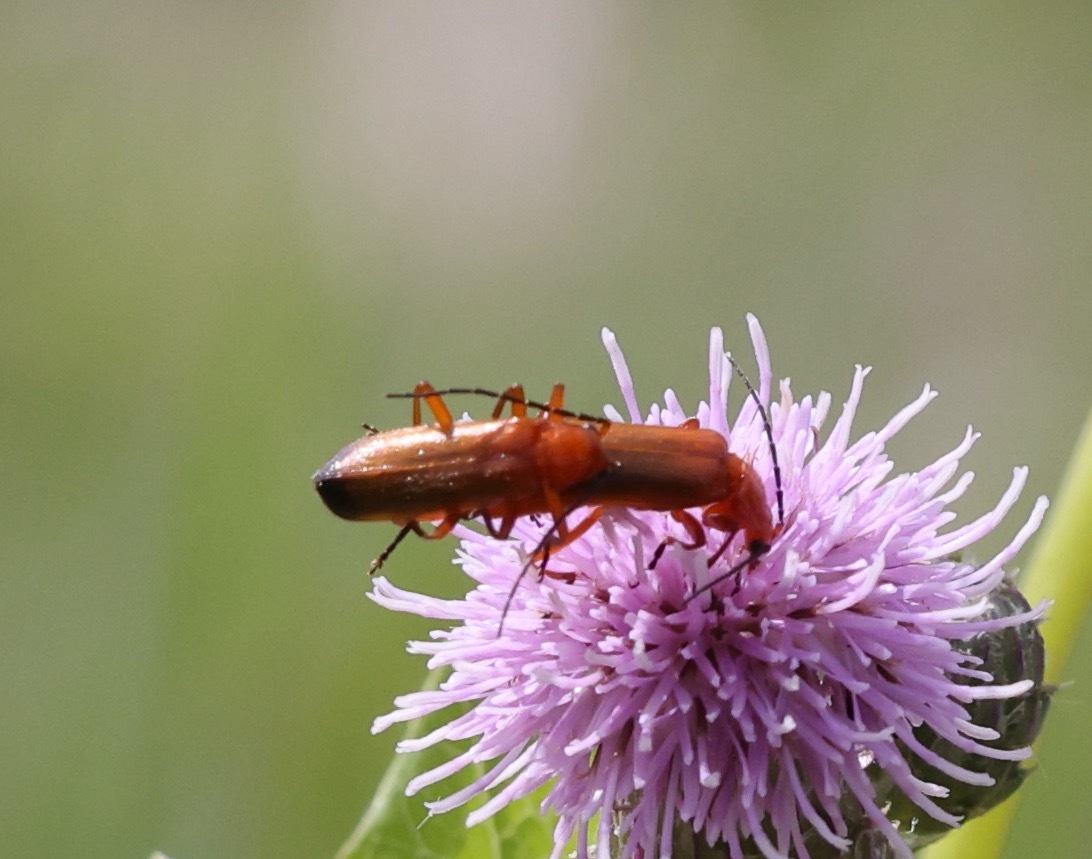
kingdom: Animalia
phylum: Arthropoda
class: Insecta
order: Coleoptera
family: Cantharidae
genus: Rhagonycha
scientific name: Rhagonycha fulva
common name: Common red soldier beetle
